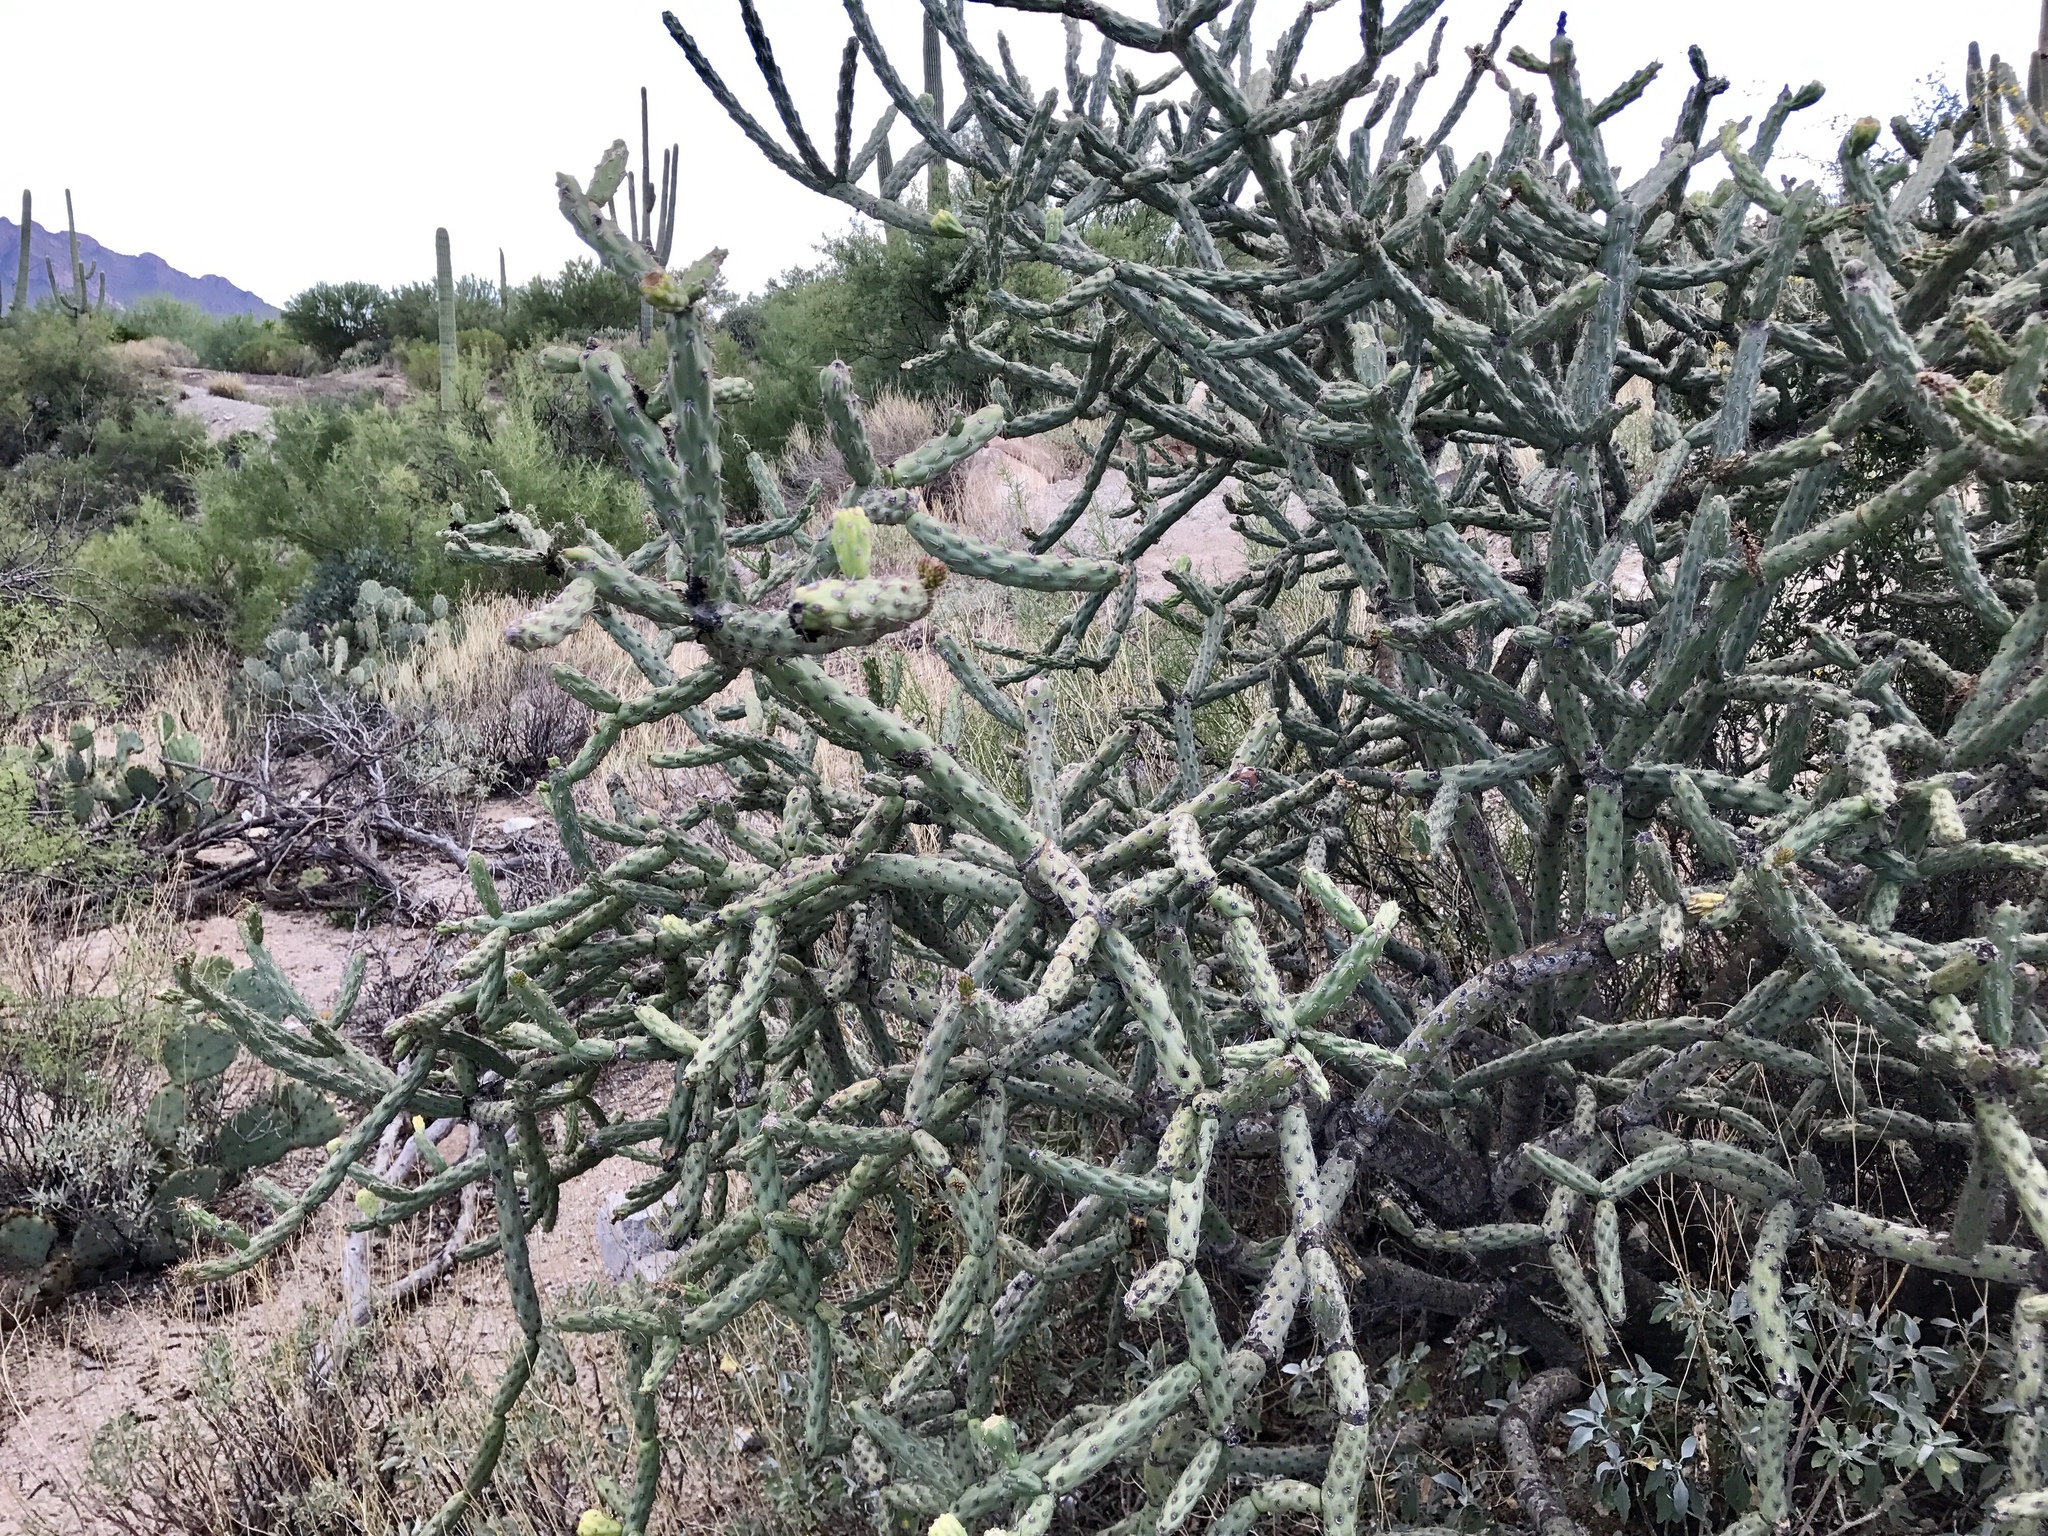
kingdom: Plantae
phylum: Tracheophyta
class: Magnoliopsida
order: Caryophyllales
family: Cactaceae
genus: Cylindropuntia
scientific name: Cylindropuntia thurberi
